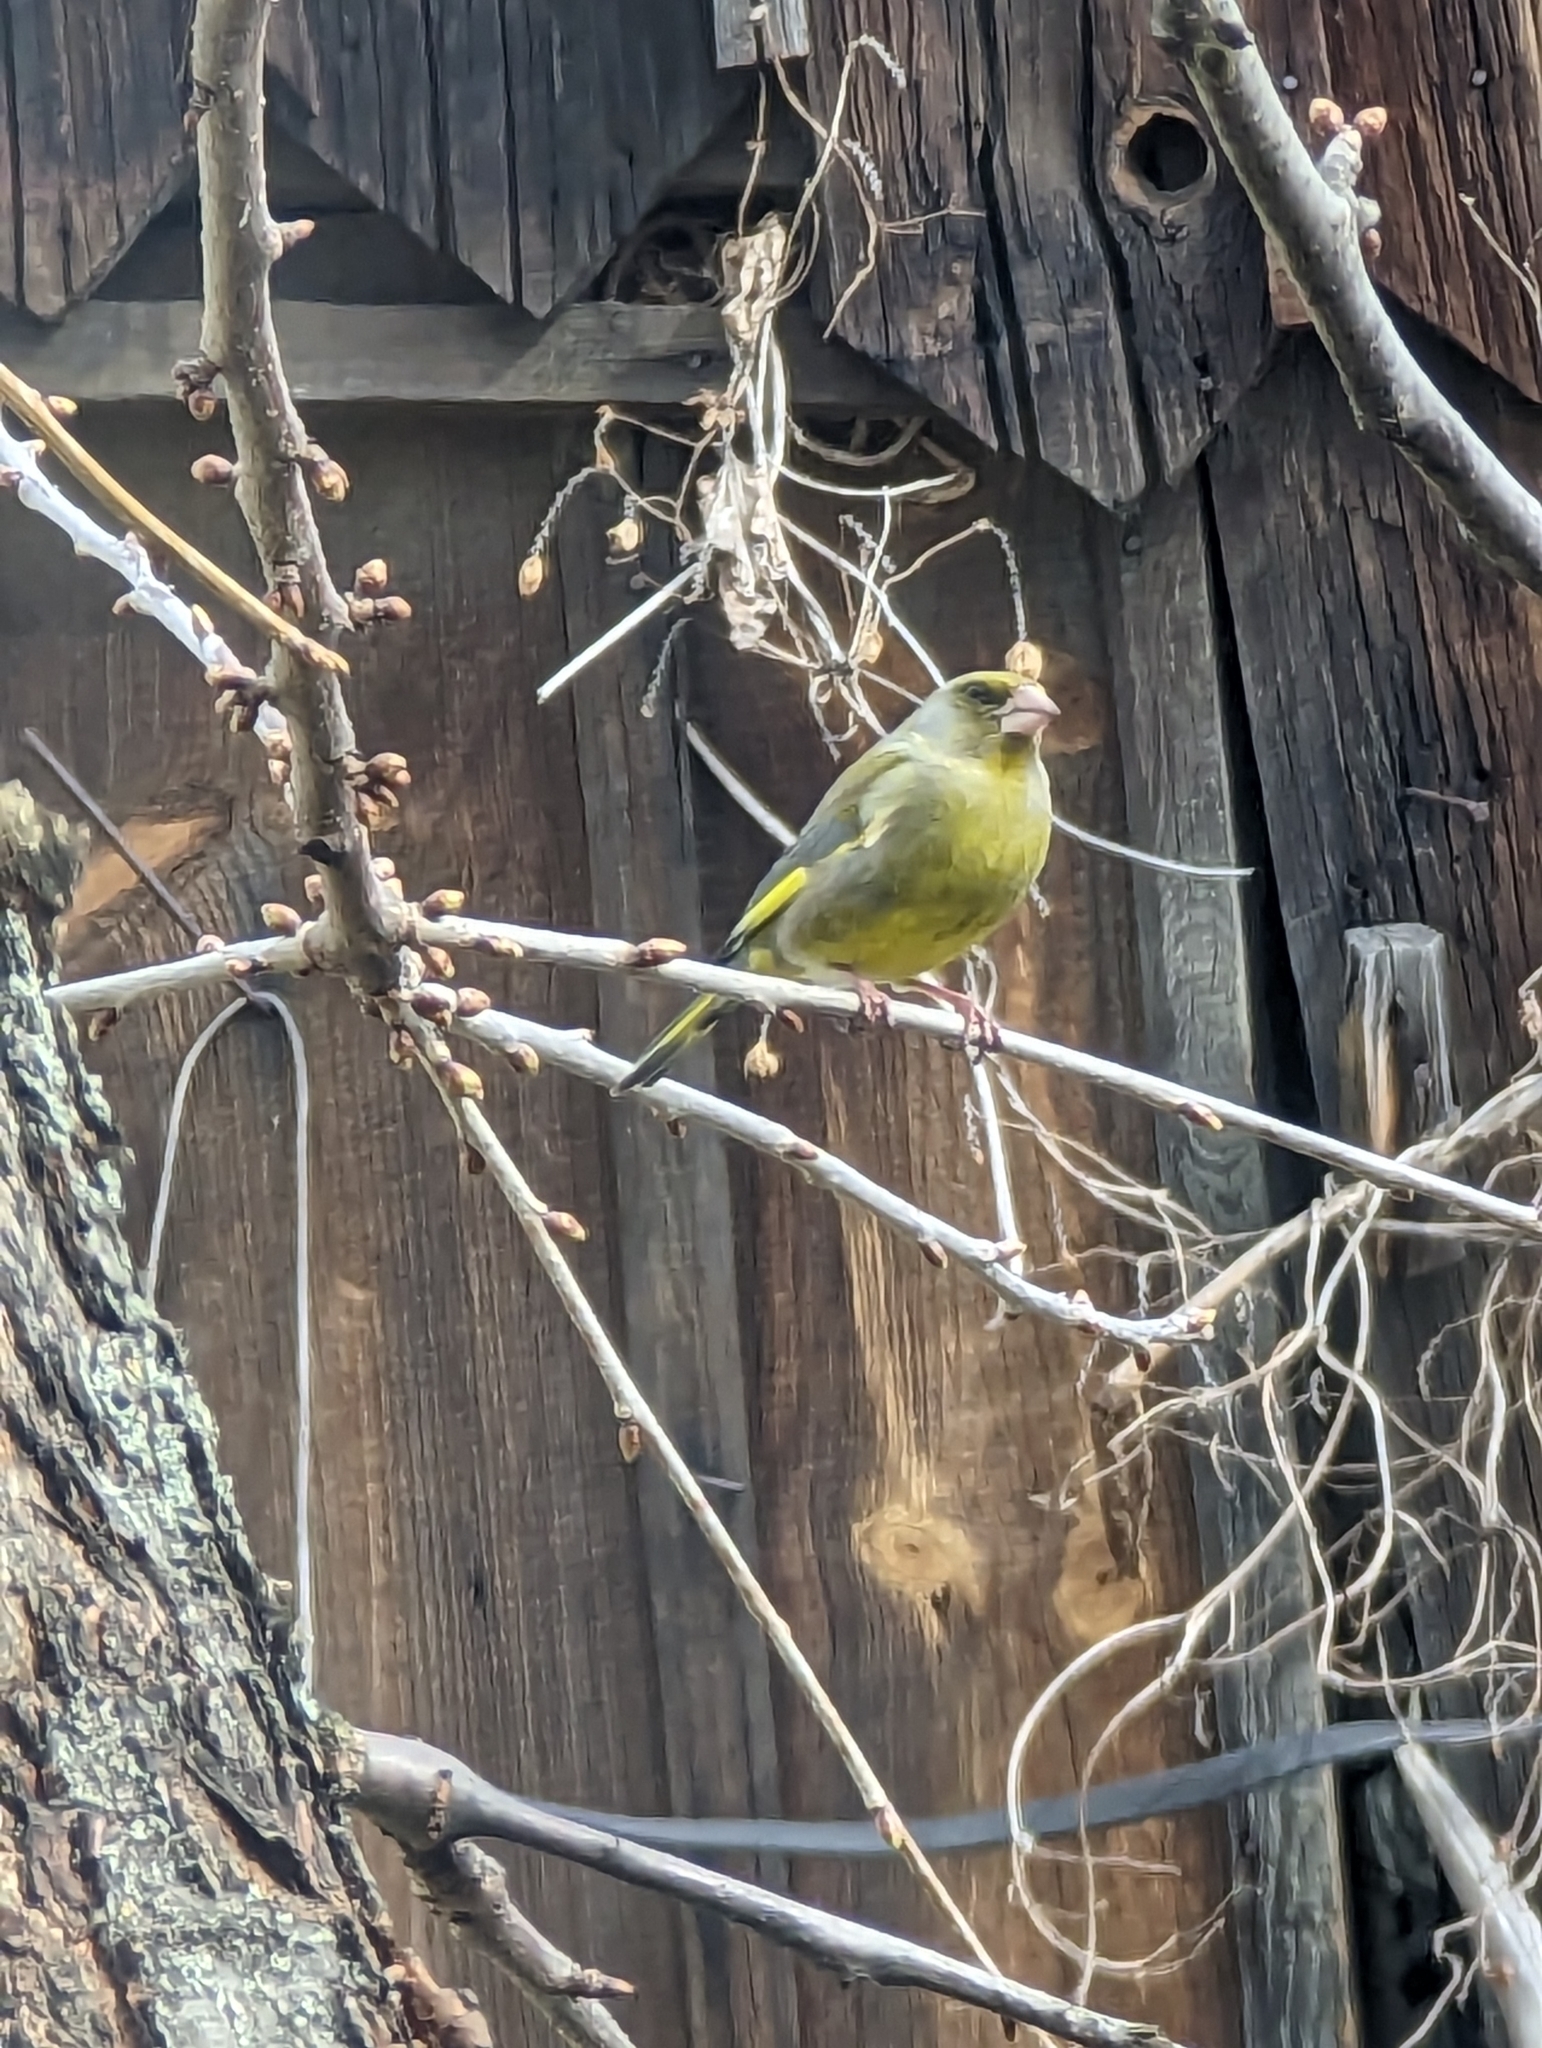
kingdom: Plantae
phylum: Tracheophyta
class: Liliopsida
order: Poales
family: Poaceae
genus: Chloris
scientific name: Chloris chloris
